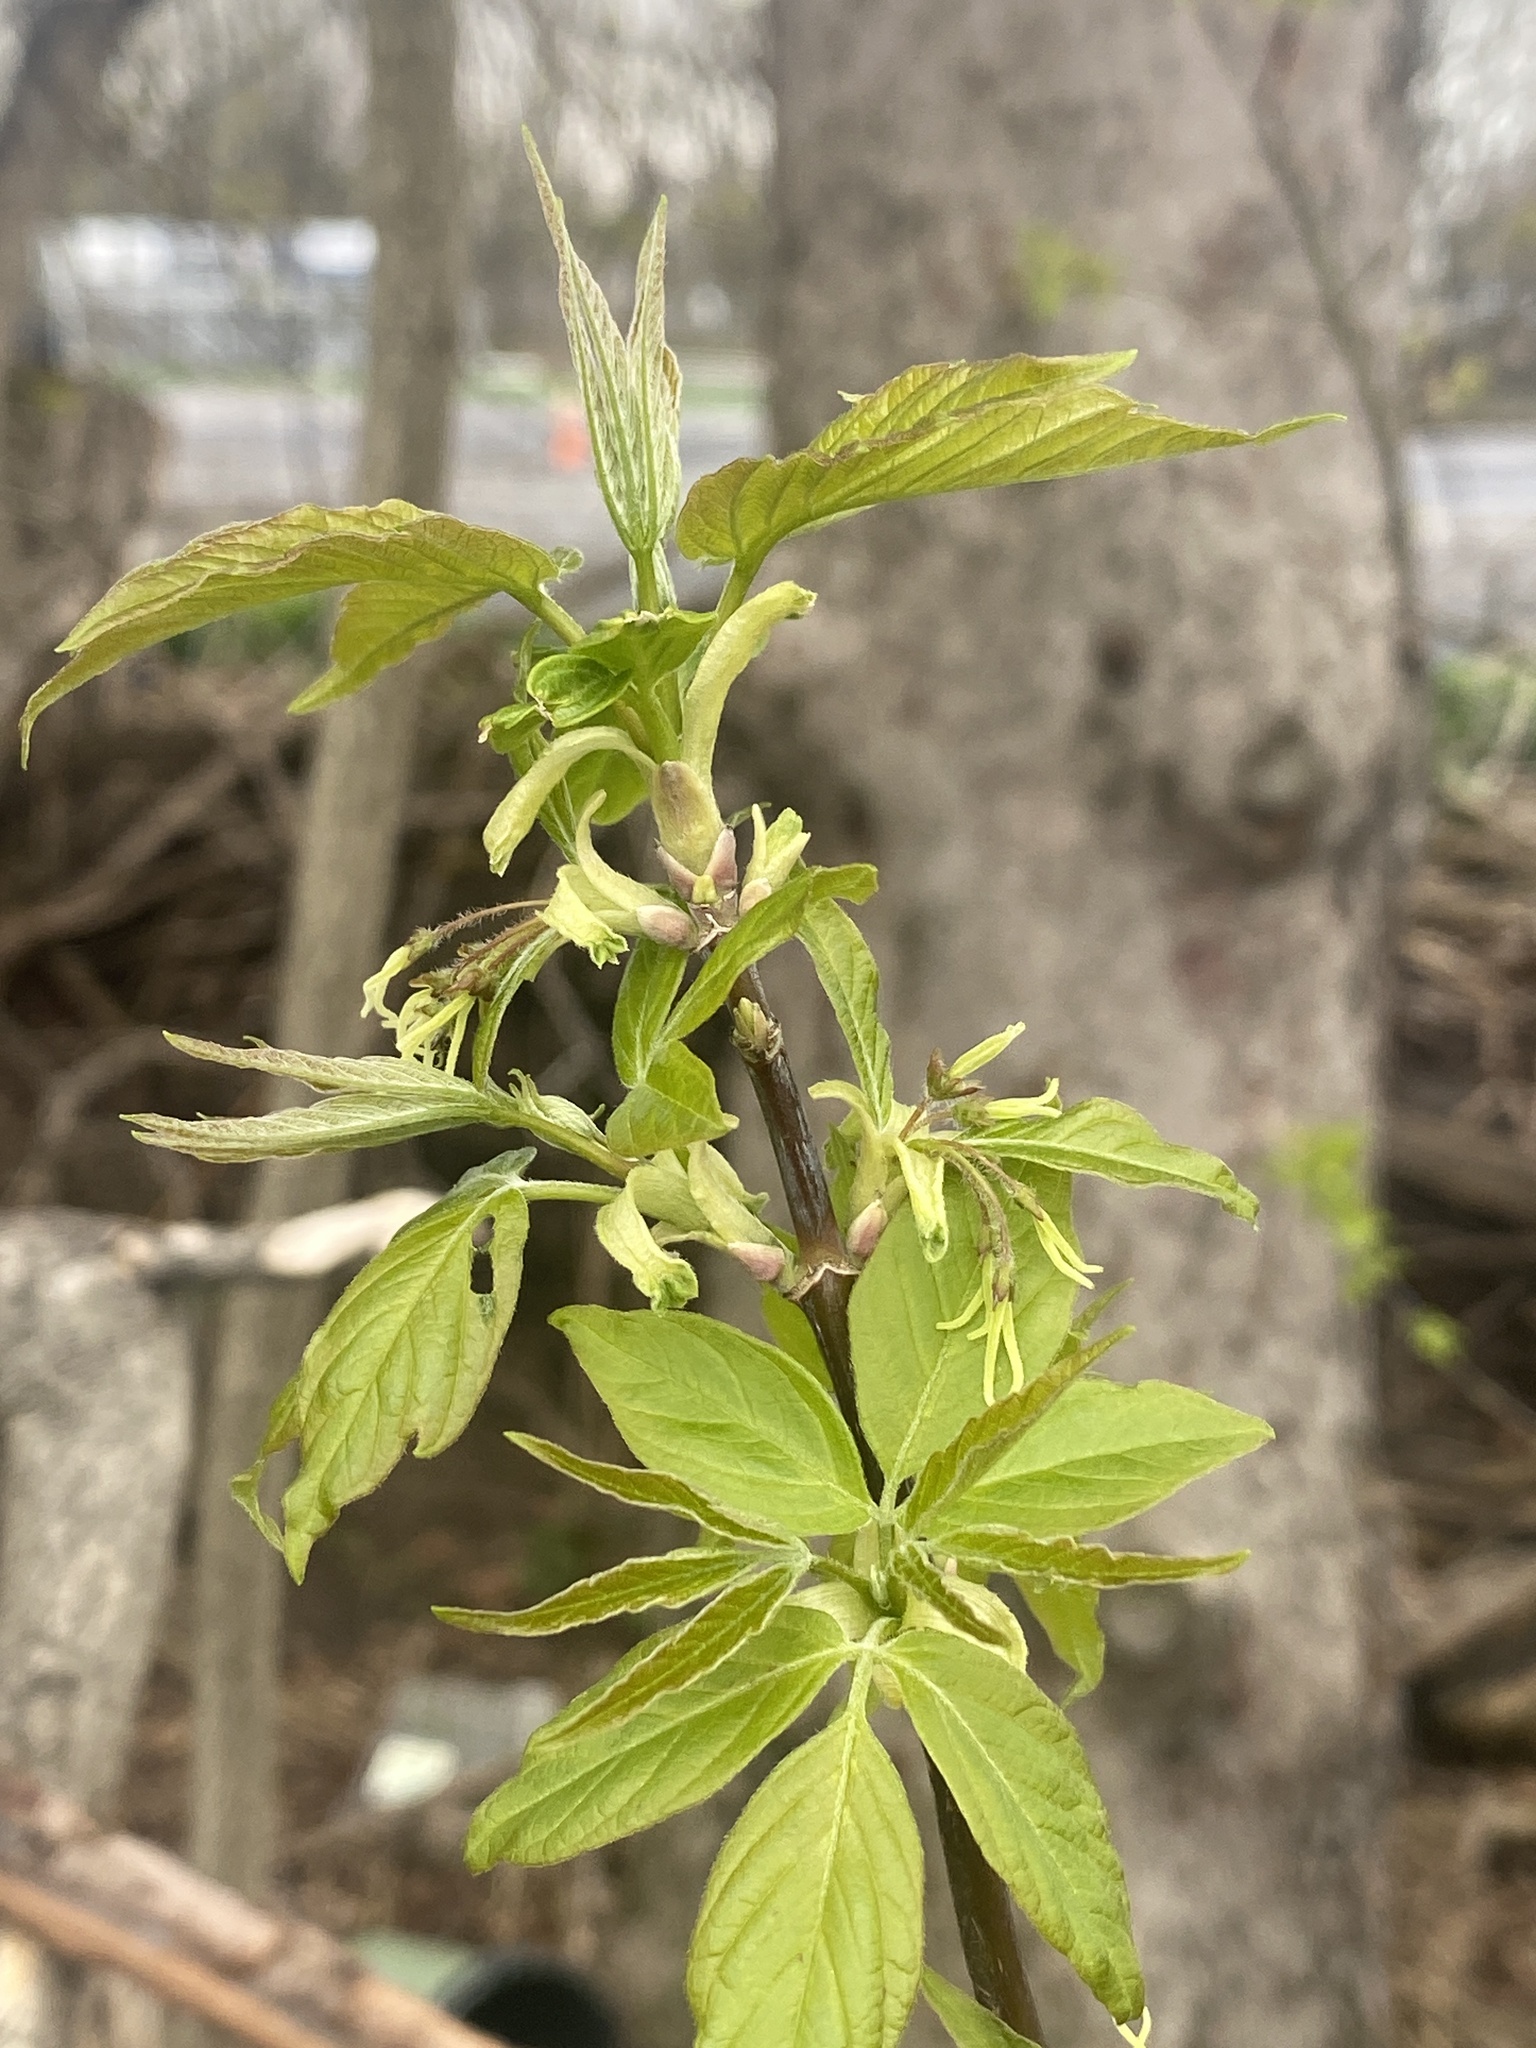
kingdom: Plantae
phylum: Tracheophyta
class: Magnoliopsida
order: Sapindales
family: Sapindaceae
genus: Acer
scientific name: Acer negundo
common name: Ashleaf maple
